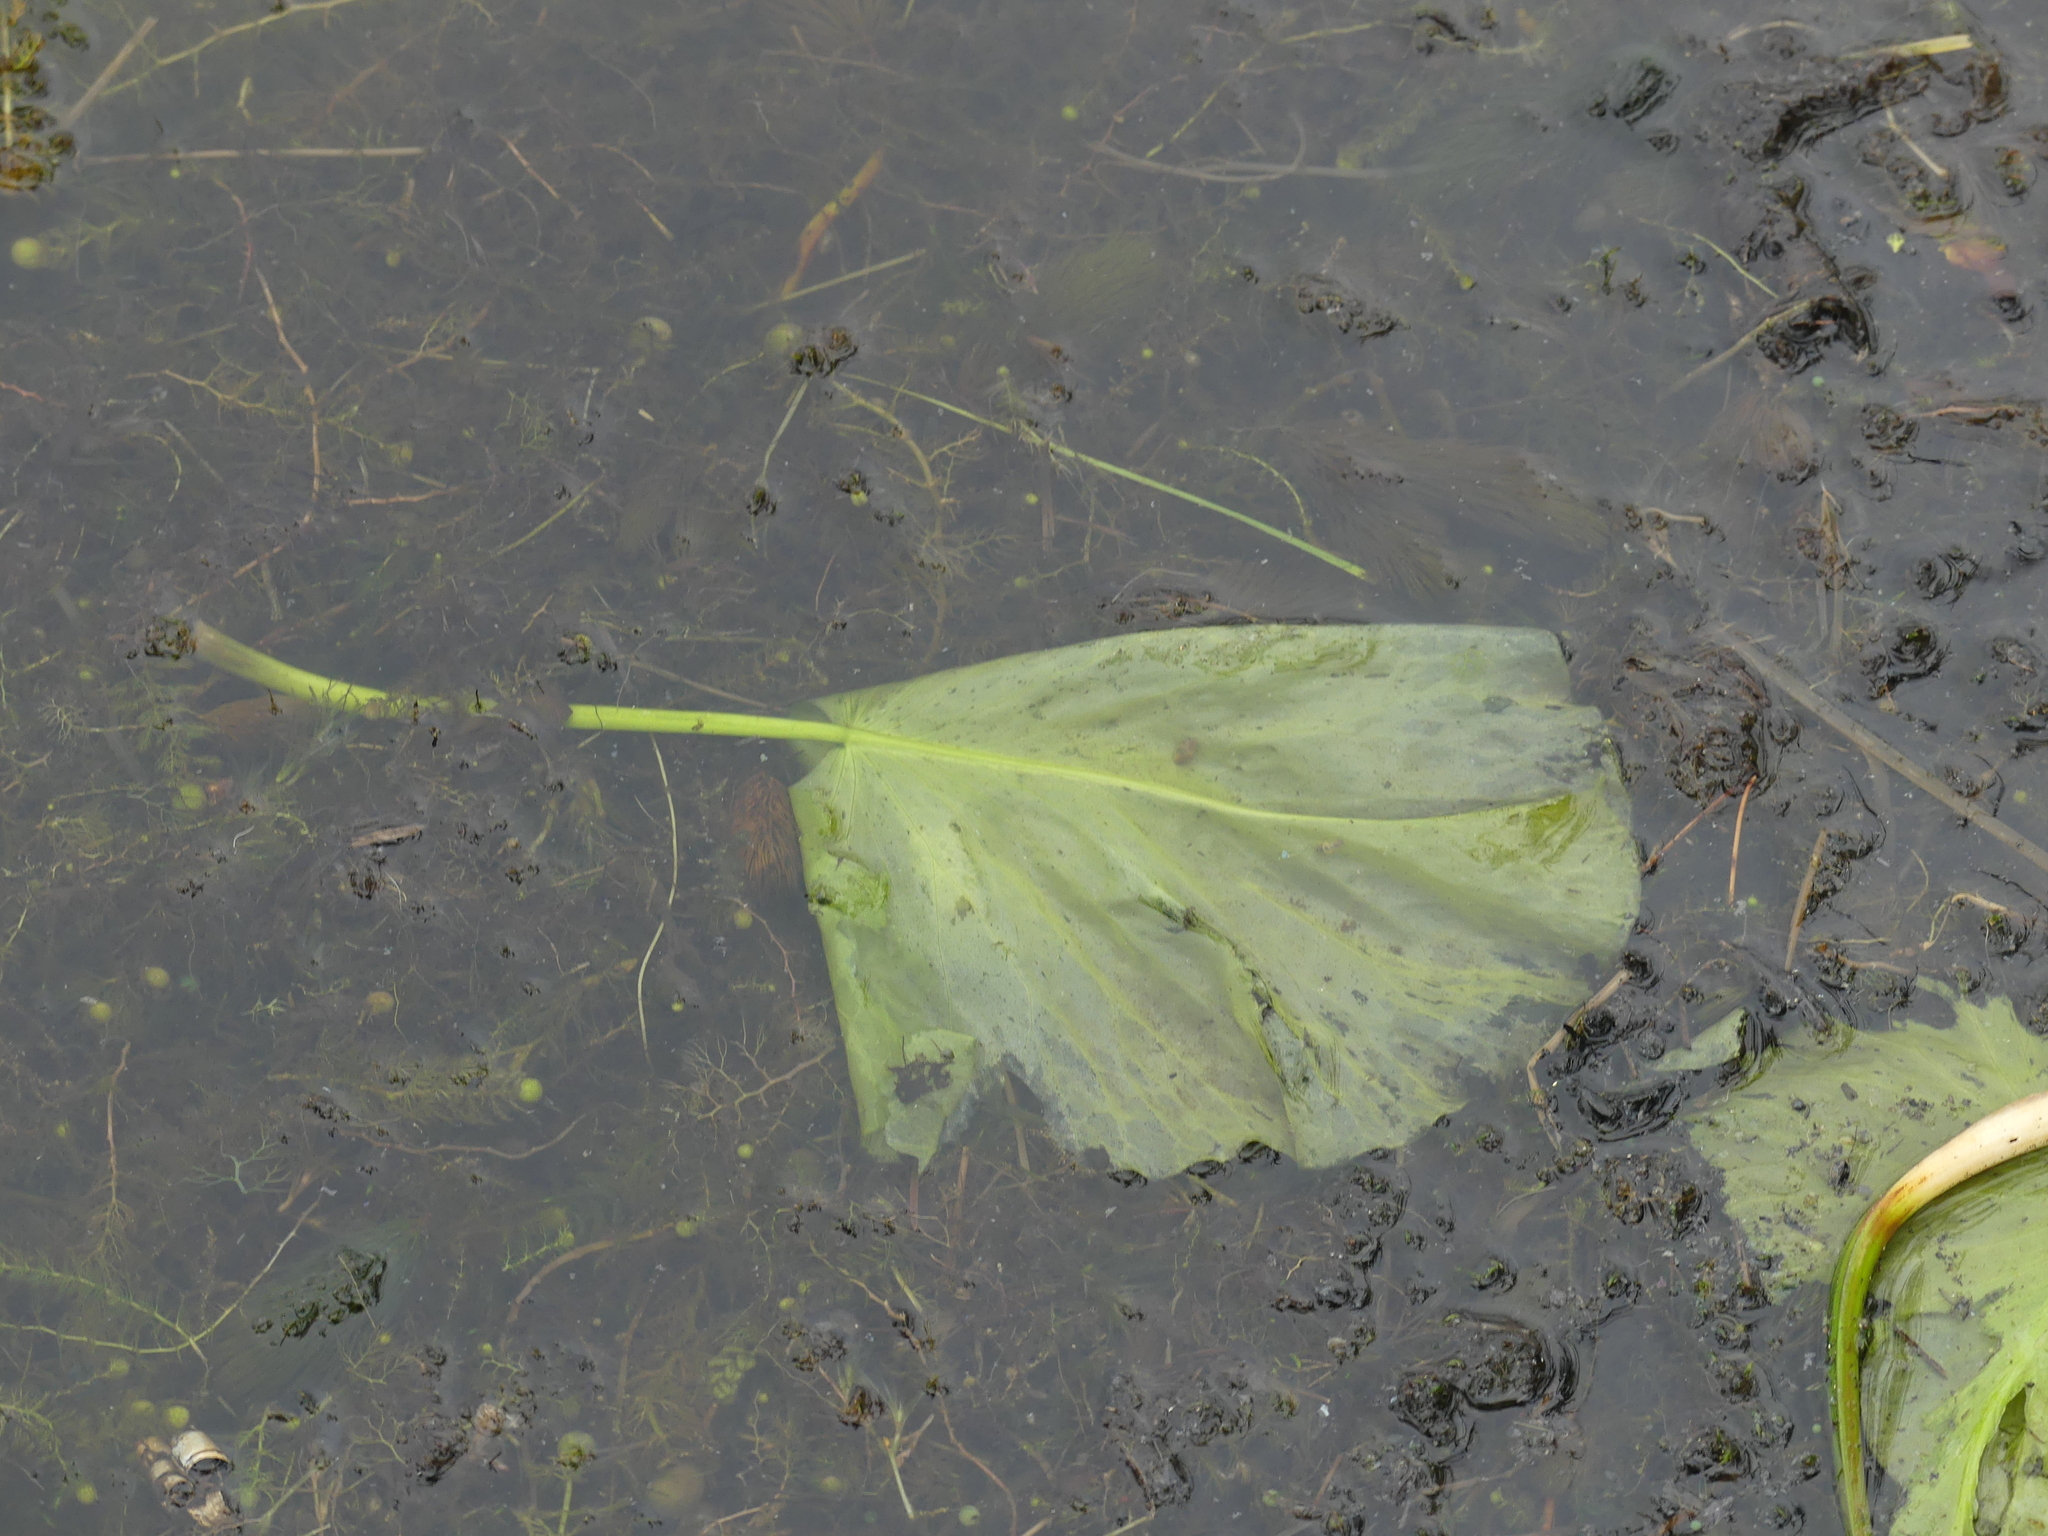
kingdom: Plantae
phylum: Tracheophyta
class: Magnoliopsida
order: Nymphaeales
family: Nymphaeaceae
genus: Nuphar
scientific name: Nuphar variegata
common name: Beaver-root
